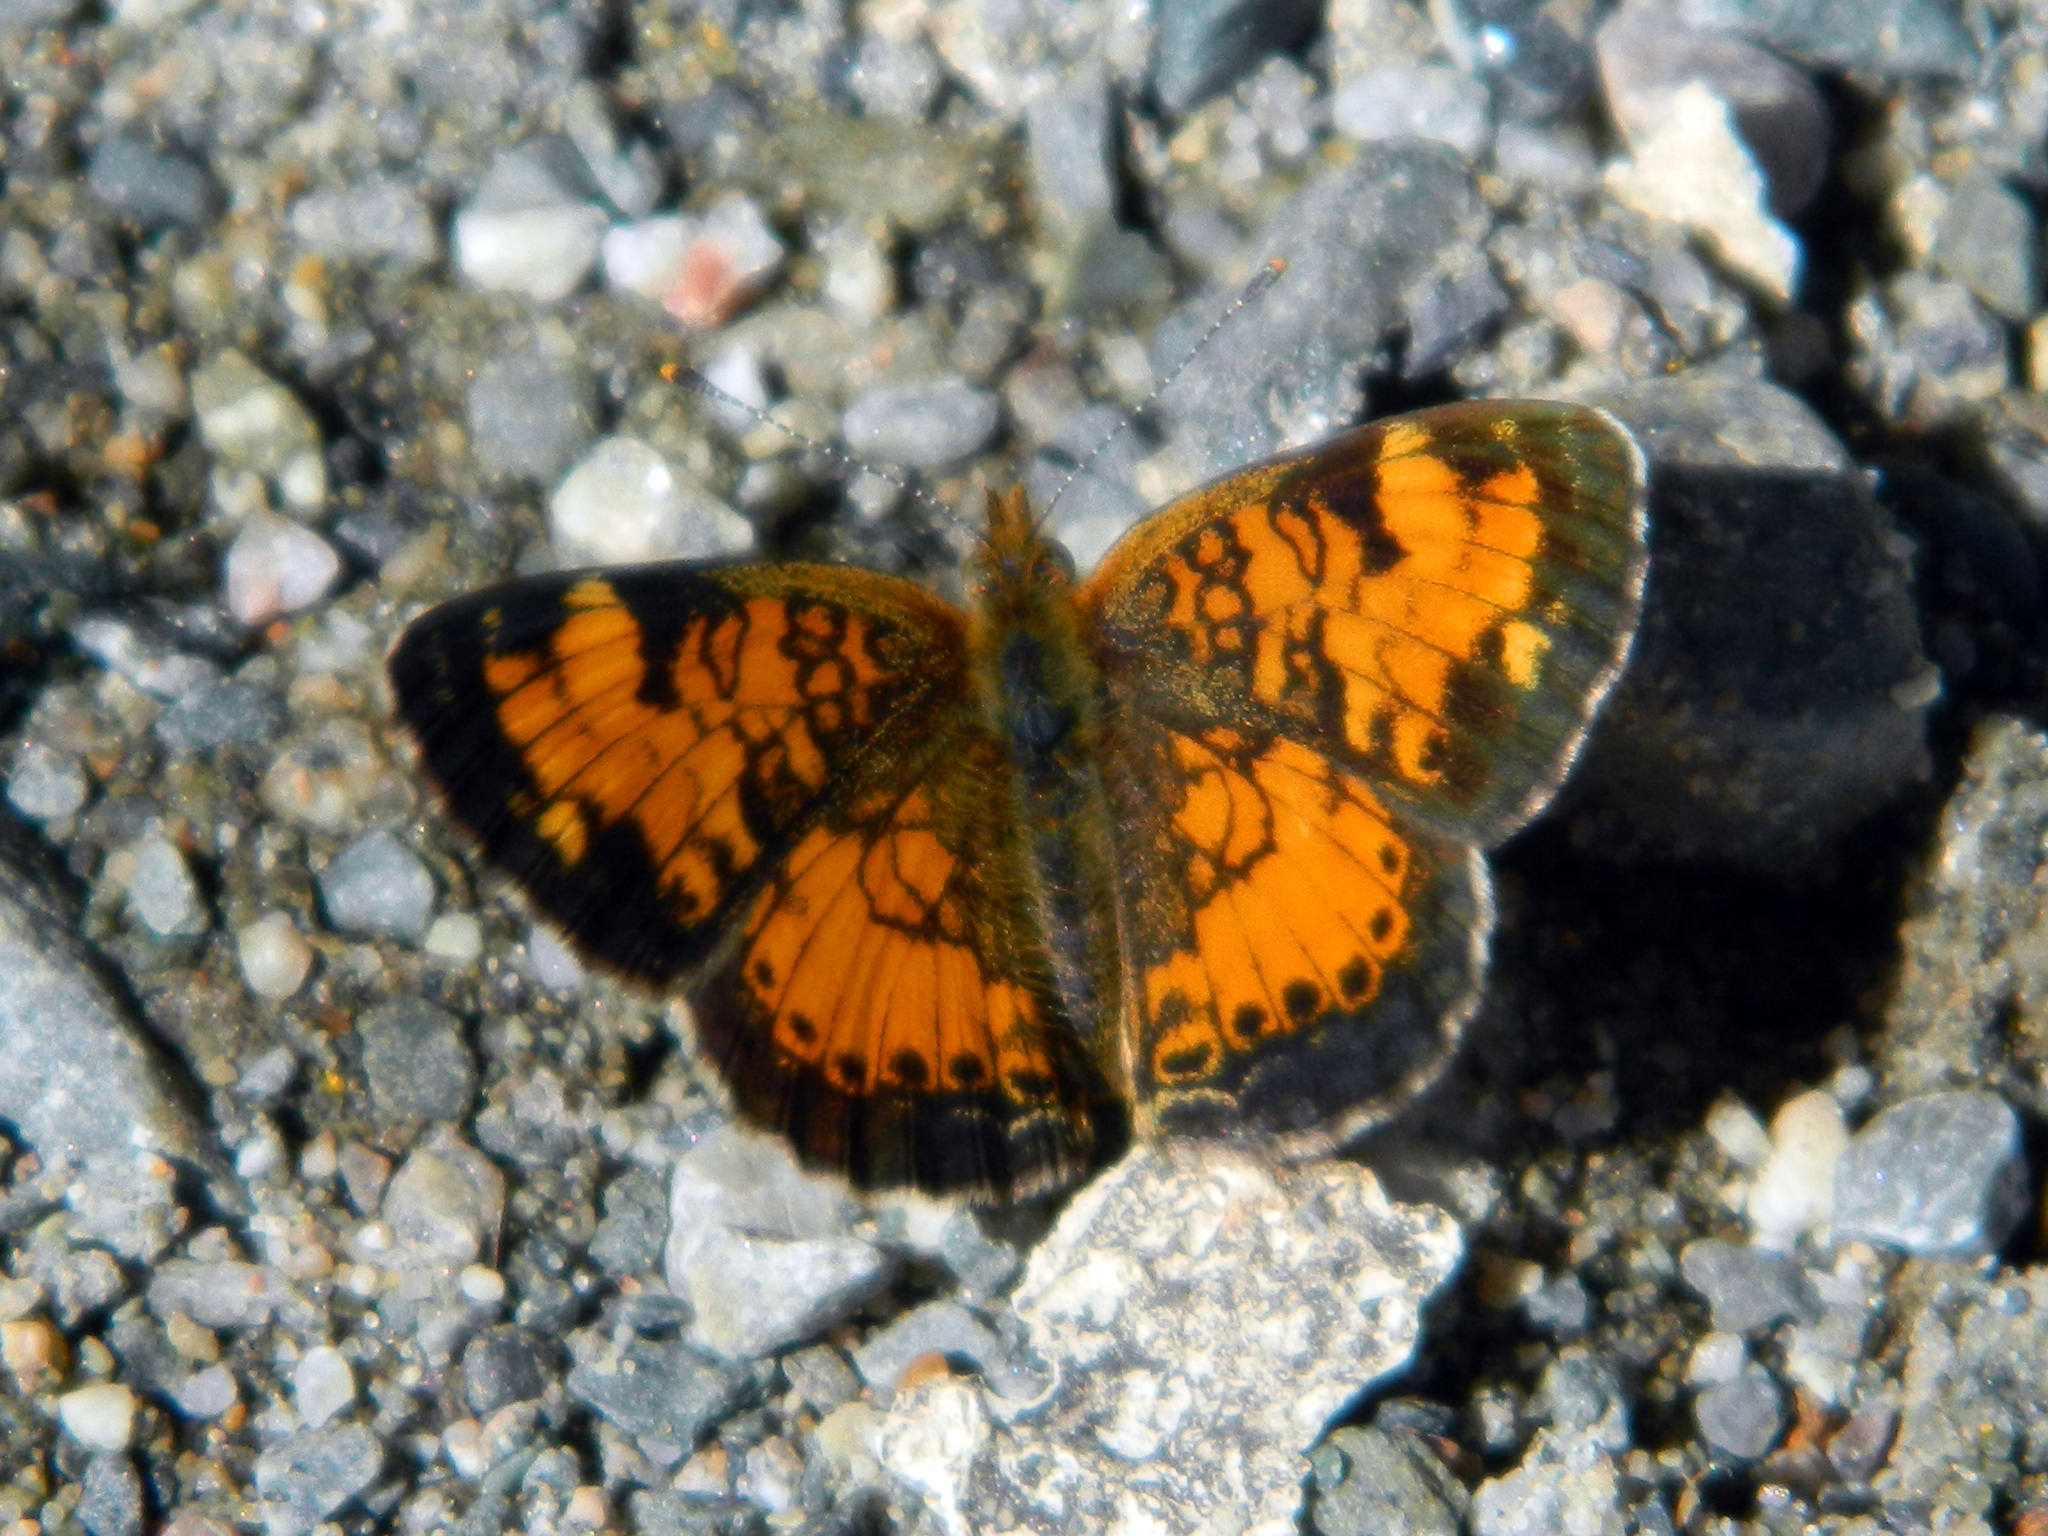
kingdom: Animalia
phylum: Arthropoda
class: Insecta
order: Lepidoptera
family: Nymphalidae
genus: Phyciodes
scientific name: Phyciodes tharos
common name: Pearl crescent
